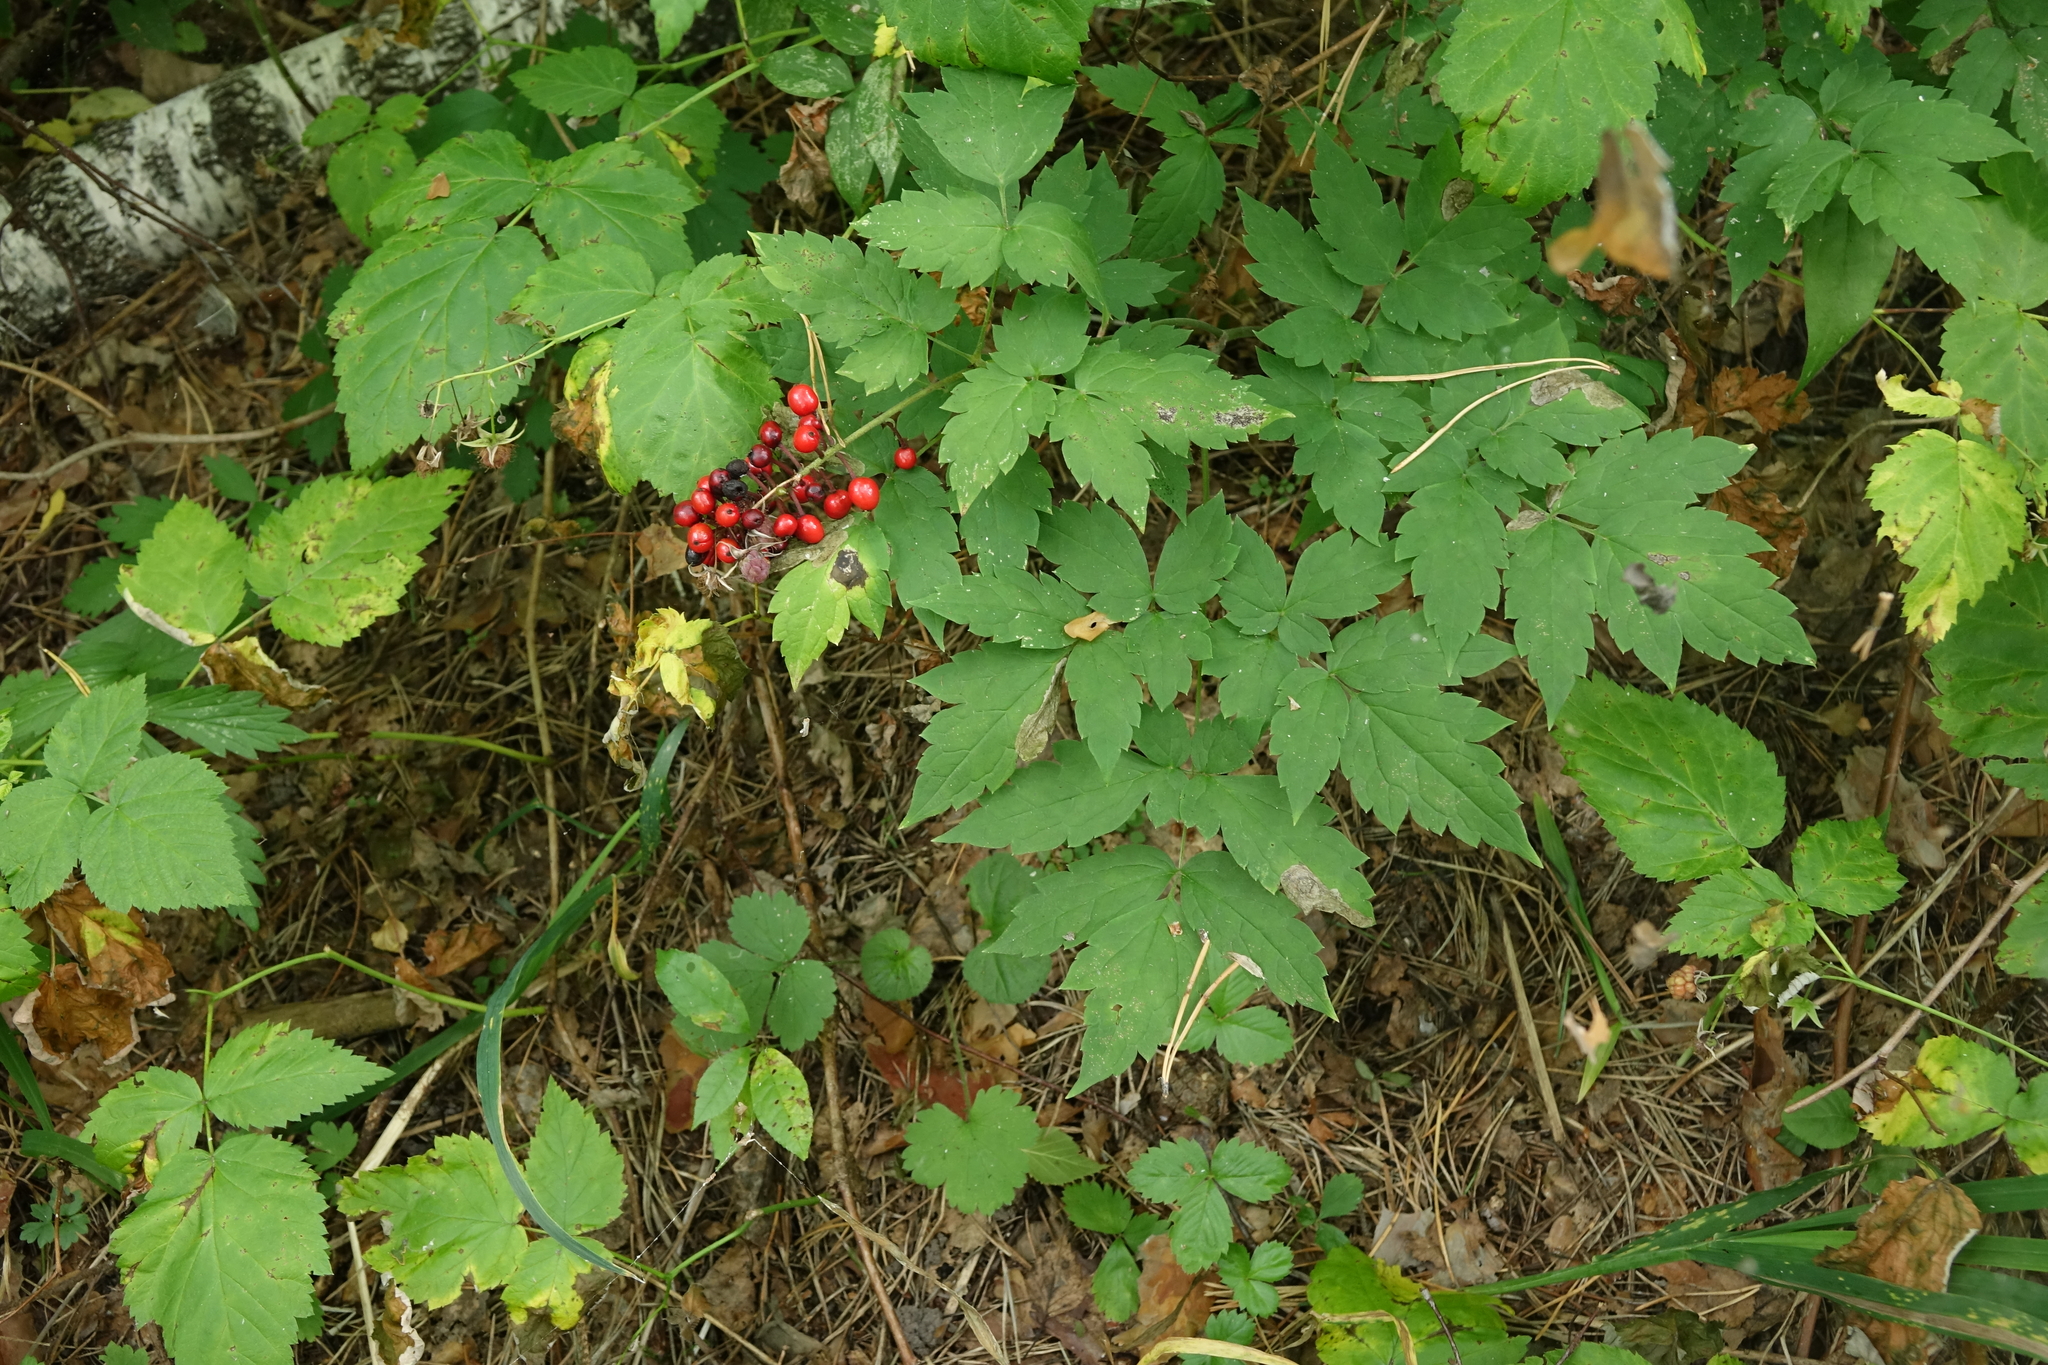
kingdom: Plantae
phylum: Tracheophyta
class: Magnoliopsida
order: Ranunculales
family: Ranunculaceae
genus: Actaea
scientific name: Actaea erythrocarpa
